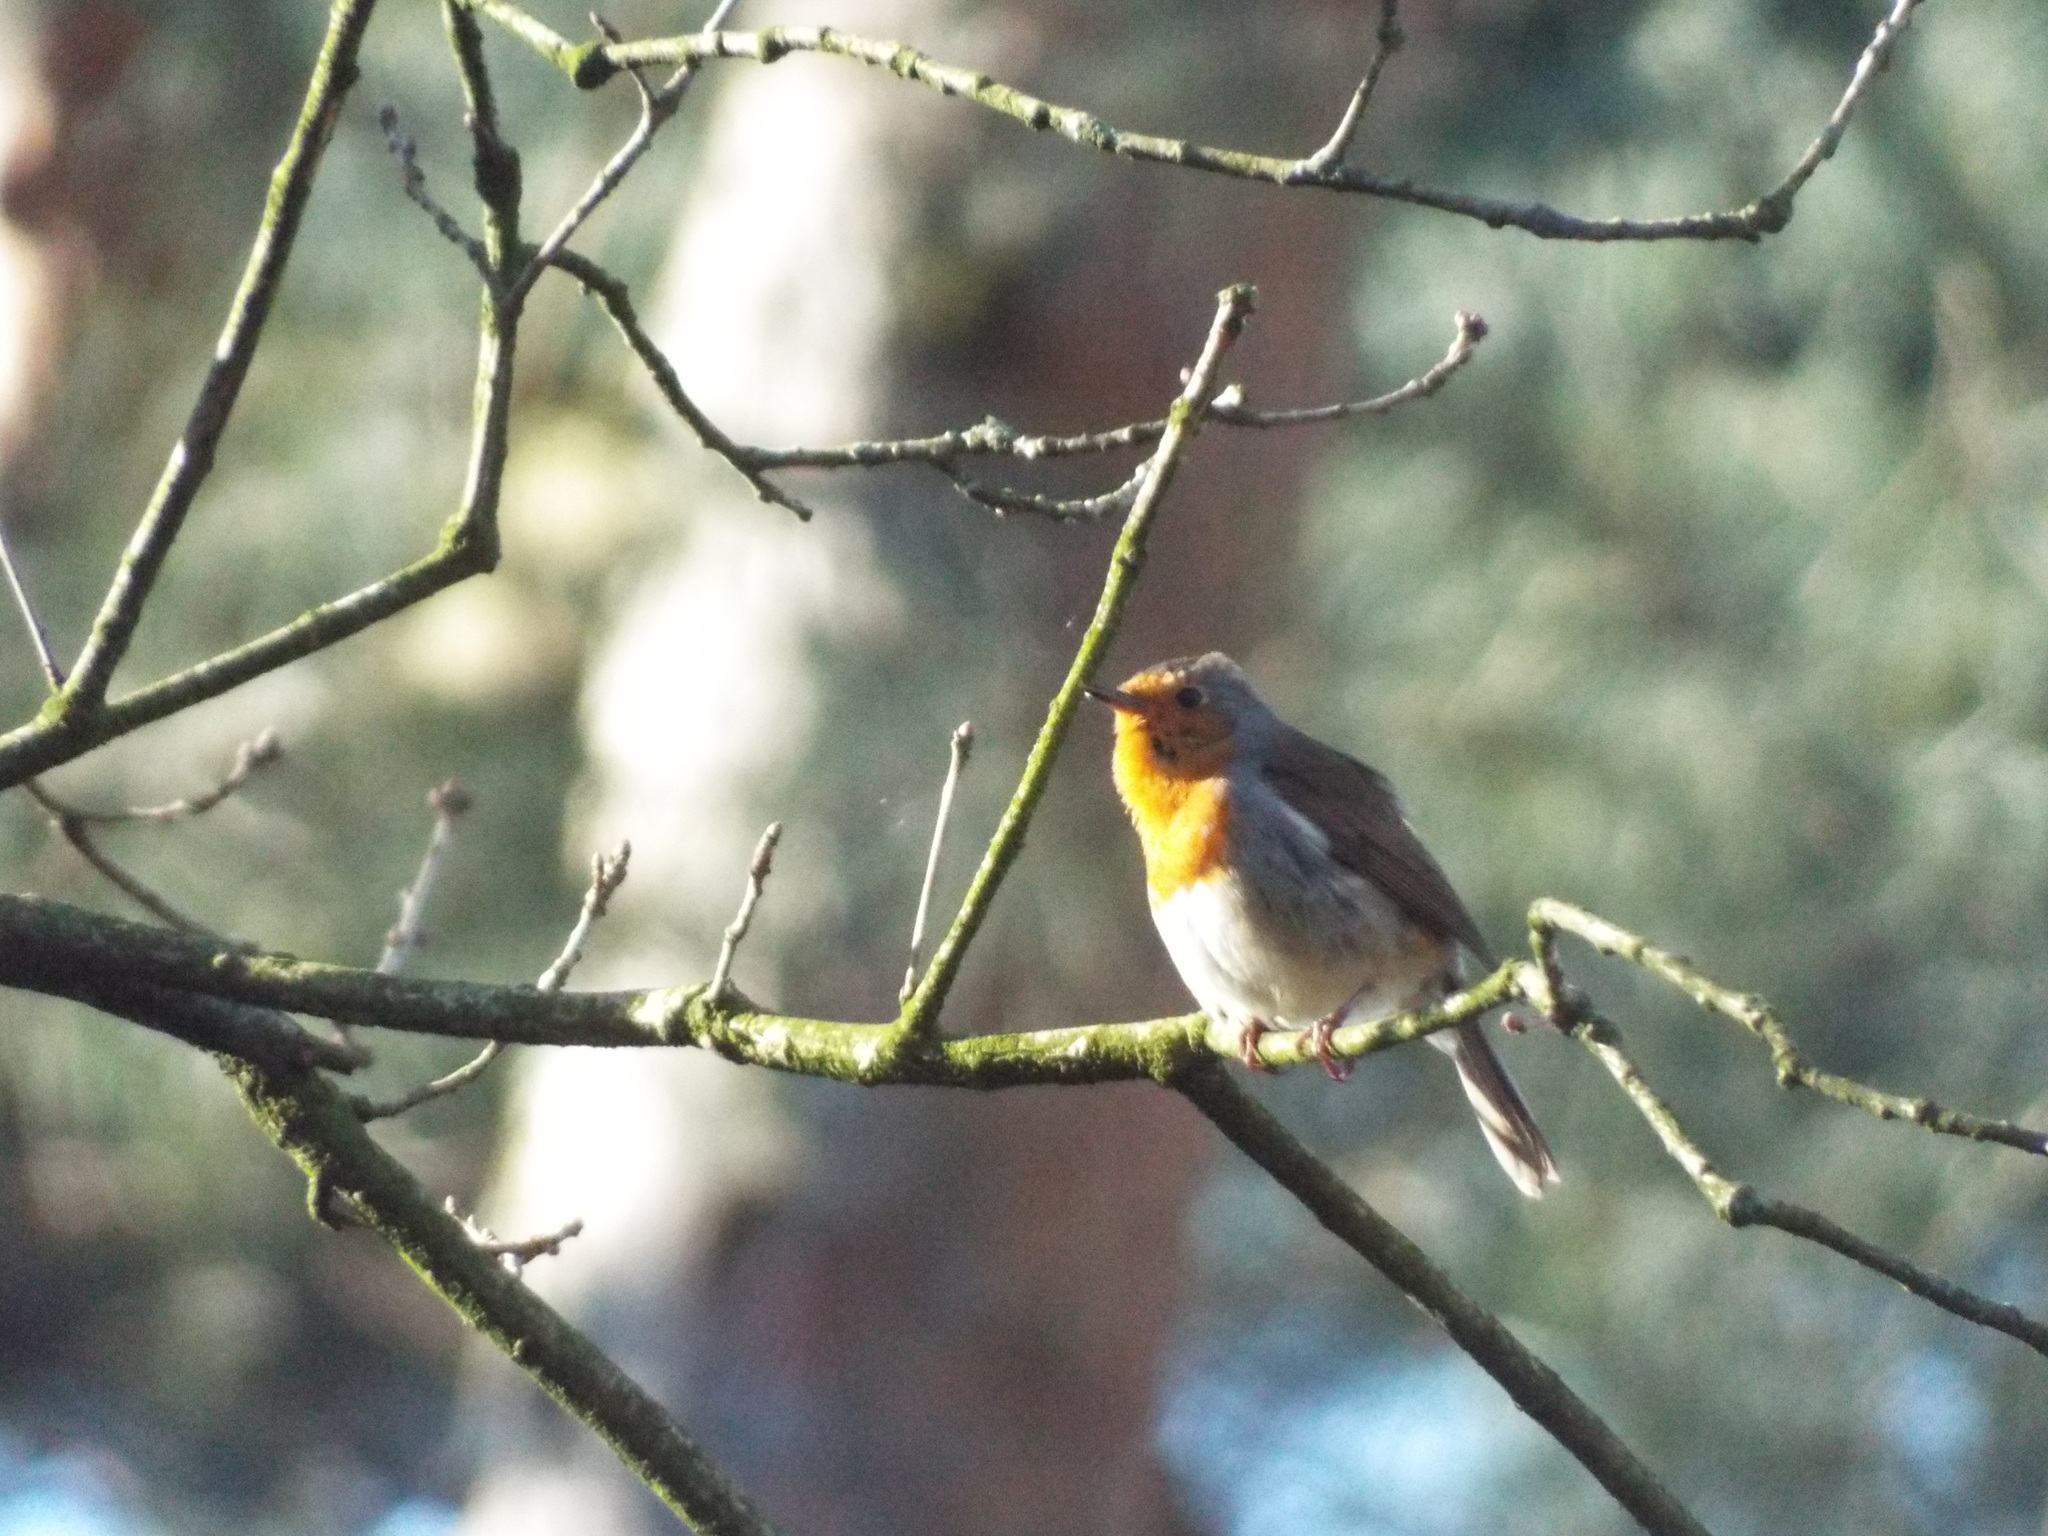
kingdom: Animalia
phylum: Chordata
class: Aves
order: Passeriformes
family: Muscicapidae
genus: Erithacus
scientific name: Erithacus rubecula
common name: European robin
